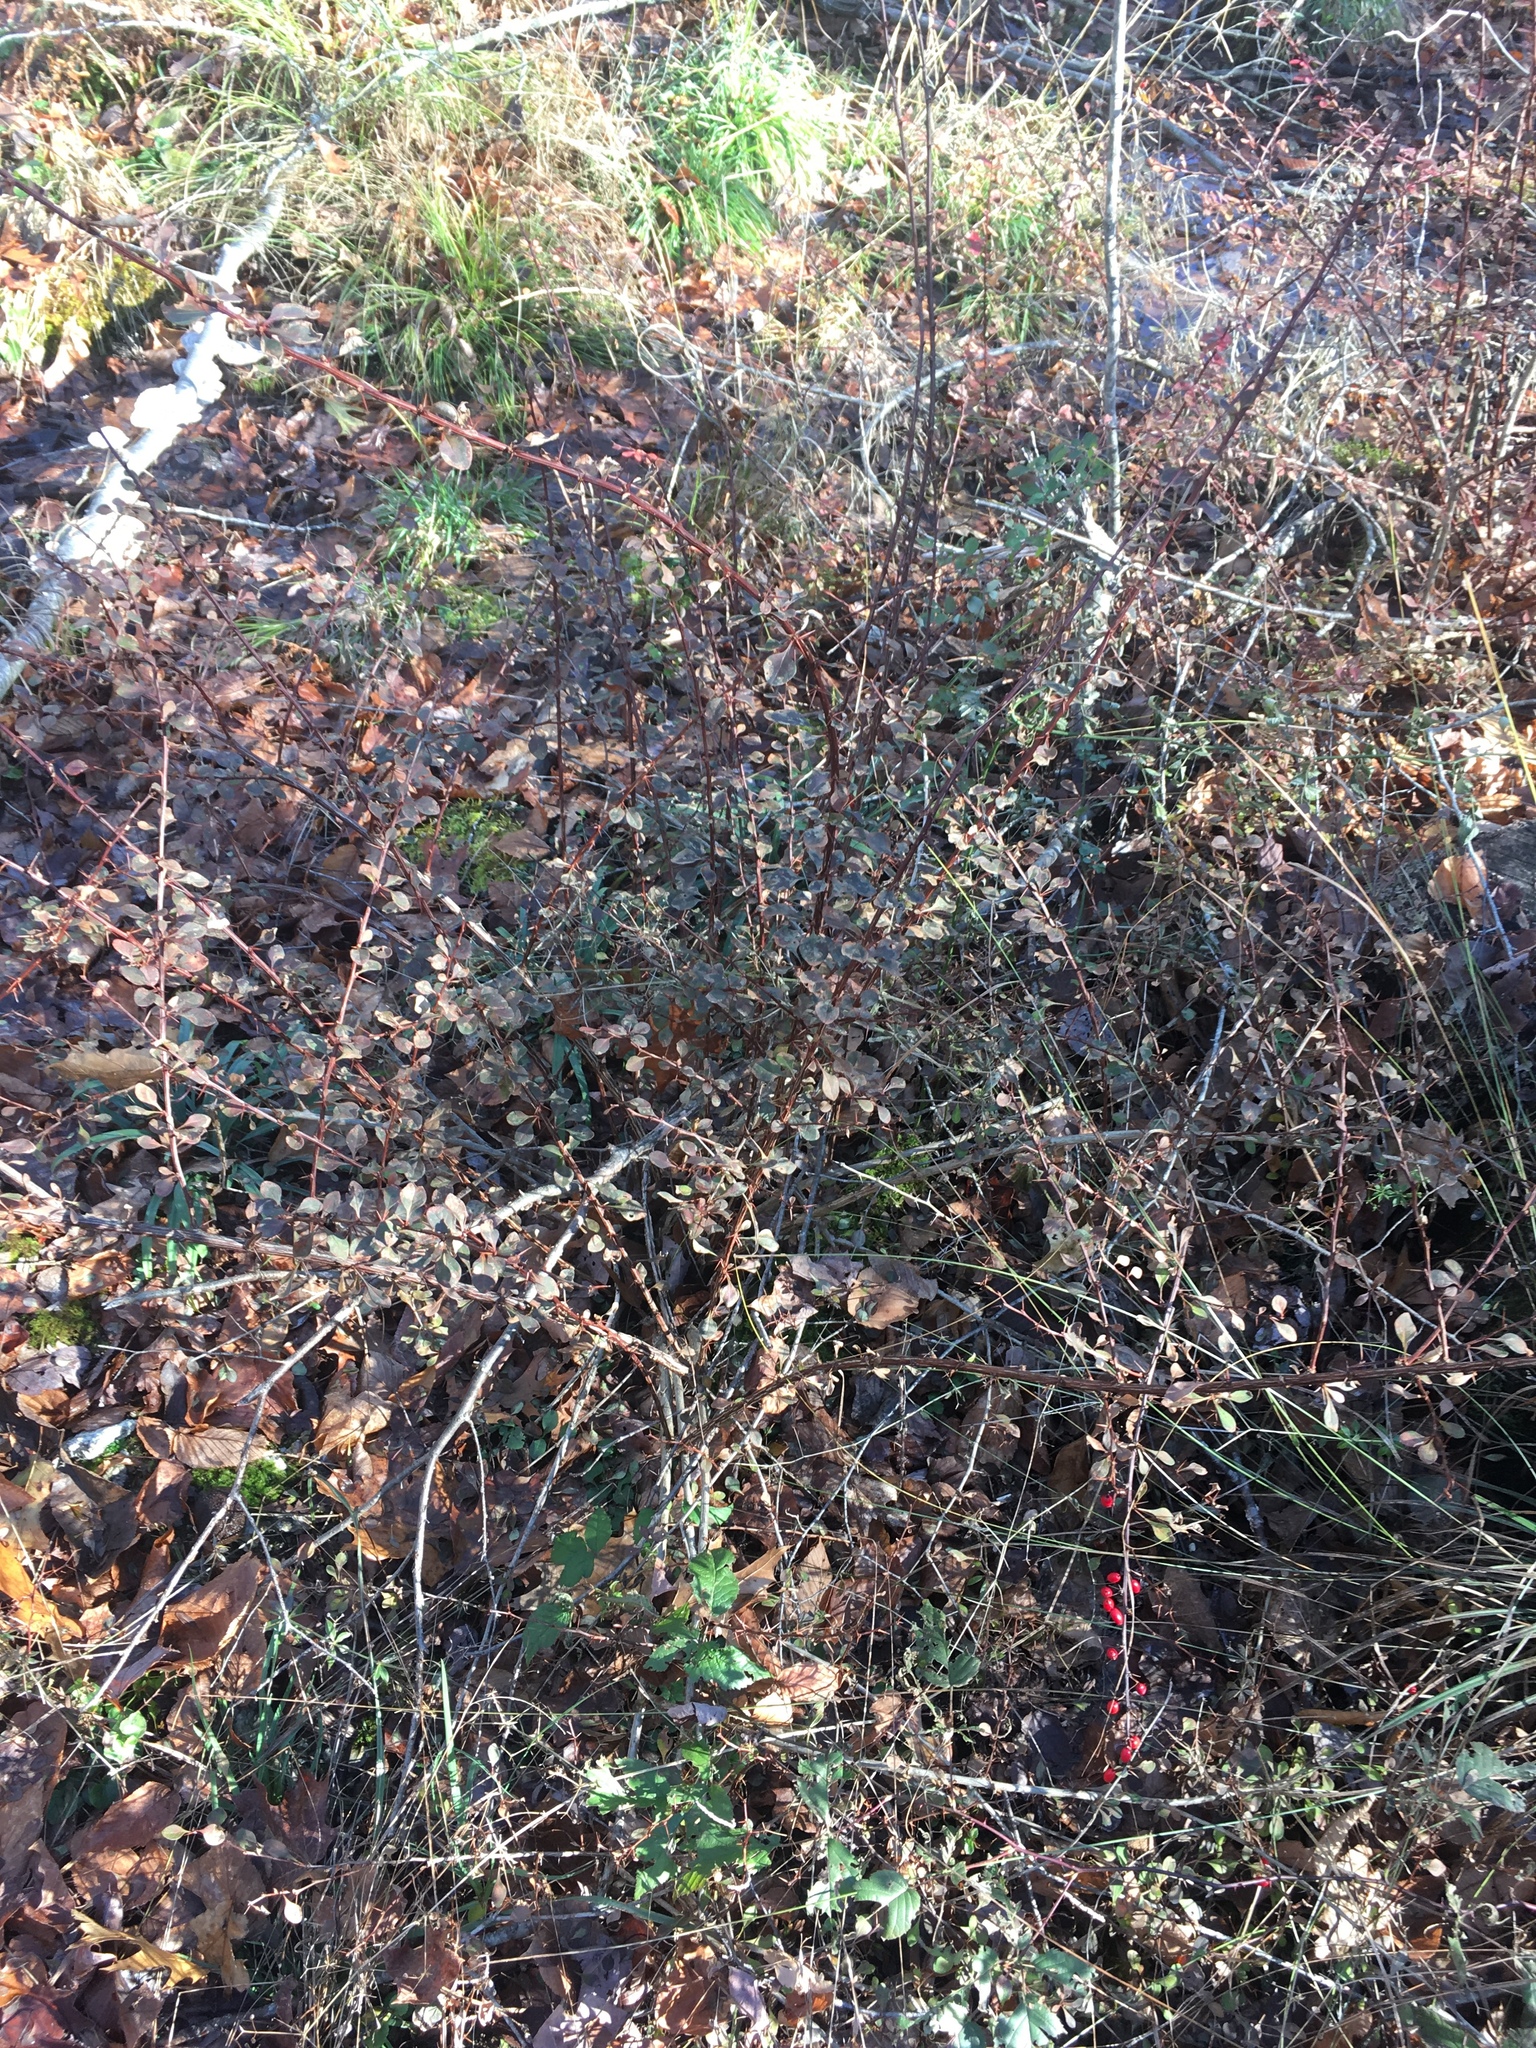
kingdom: Plantae
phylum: Tracheophyta
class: Magnoliopsida
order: Ranunculales
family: Berberidaceae
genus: Berberis
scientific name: Berberis thunbergii
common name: Japanese barberry
